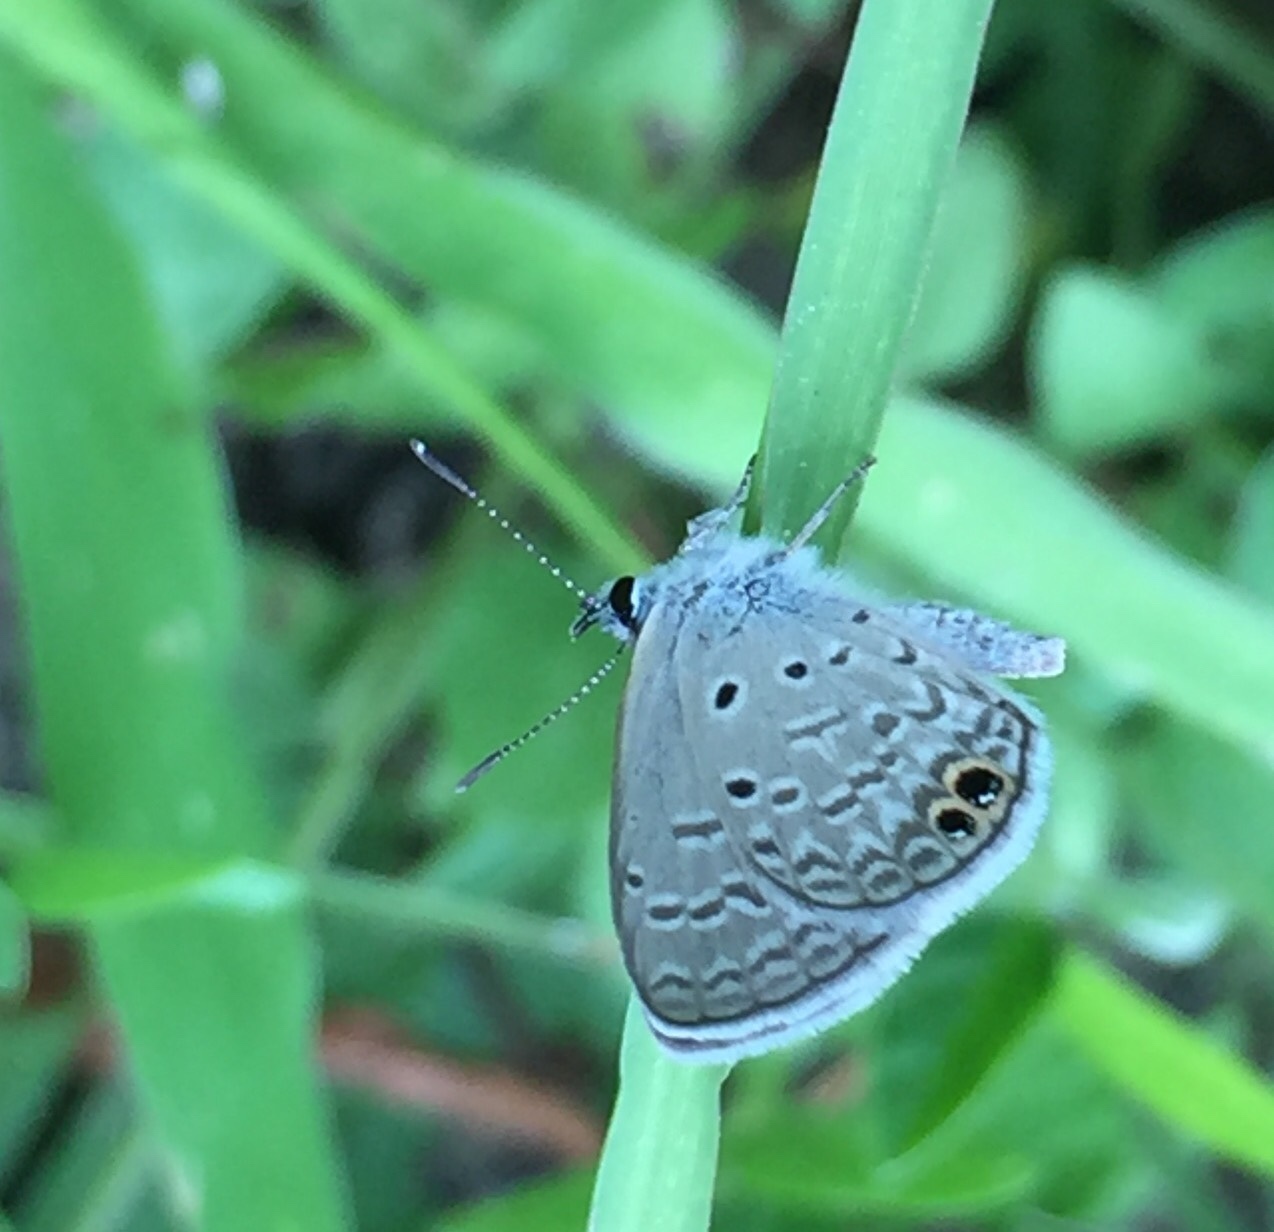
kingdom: Animalia
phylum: Arthropoda
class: Insecta
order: Lepidoptera
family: Lycaenidae
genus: Hemiargus
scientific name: Hemiargus ceraunus
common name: Ceraunus blue
